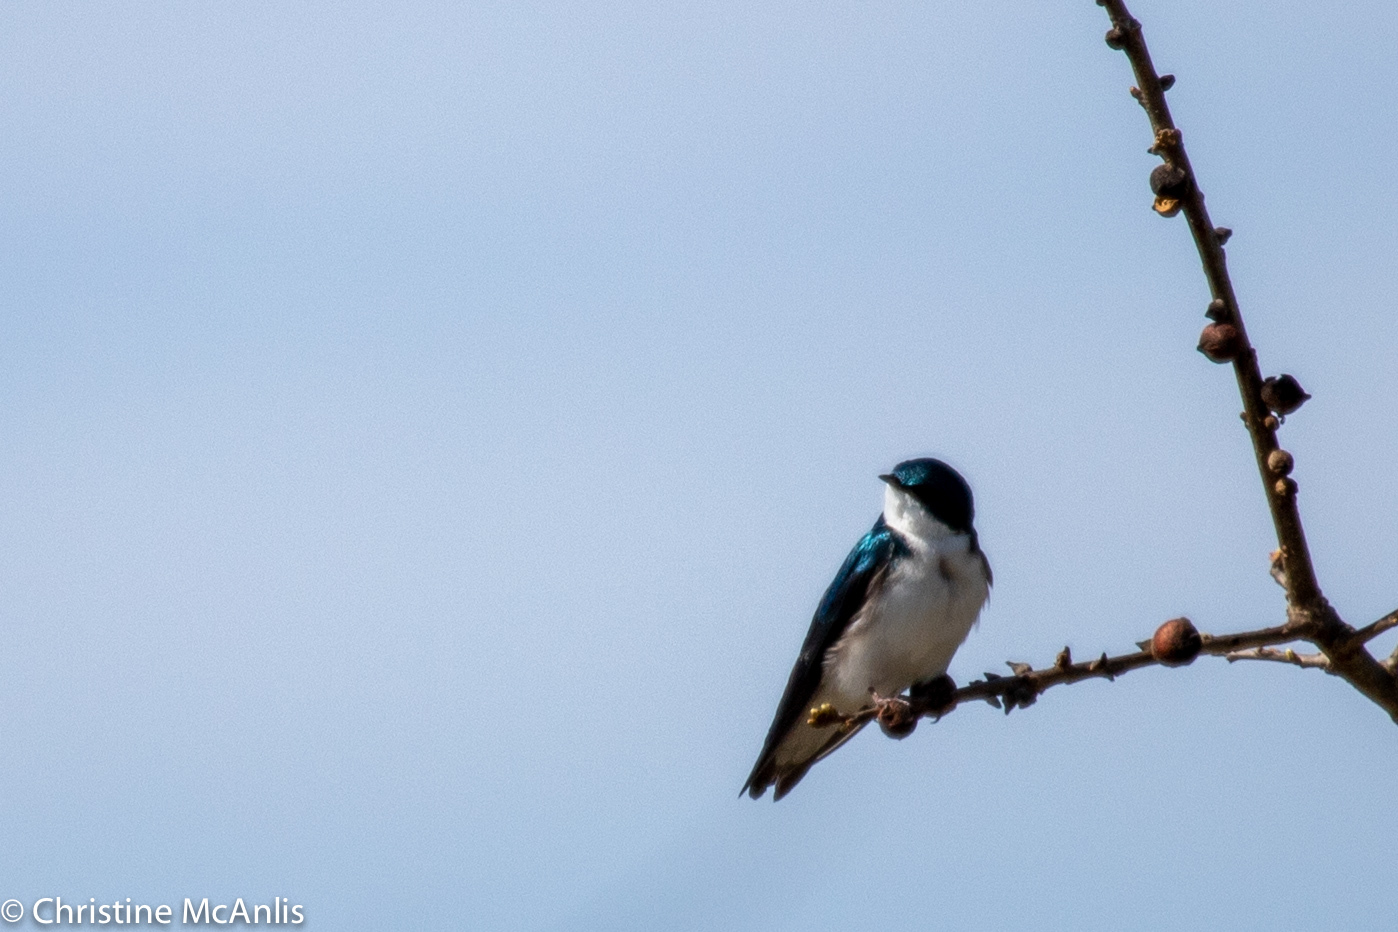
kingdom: Animalia
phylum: Chordata
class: Aves
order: Passeriformes
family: Hirundinidae
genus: Tachycineta
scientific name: Tachycineta bicolor
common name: Tree swallow
